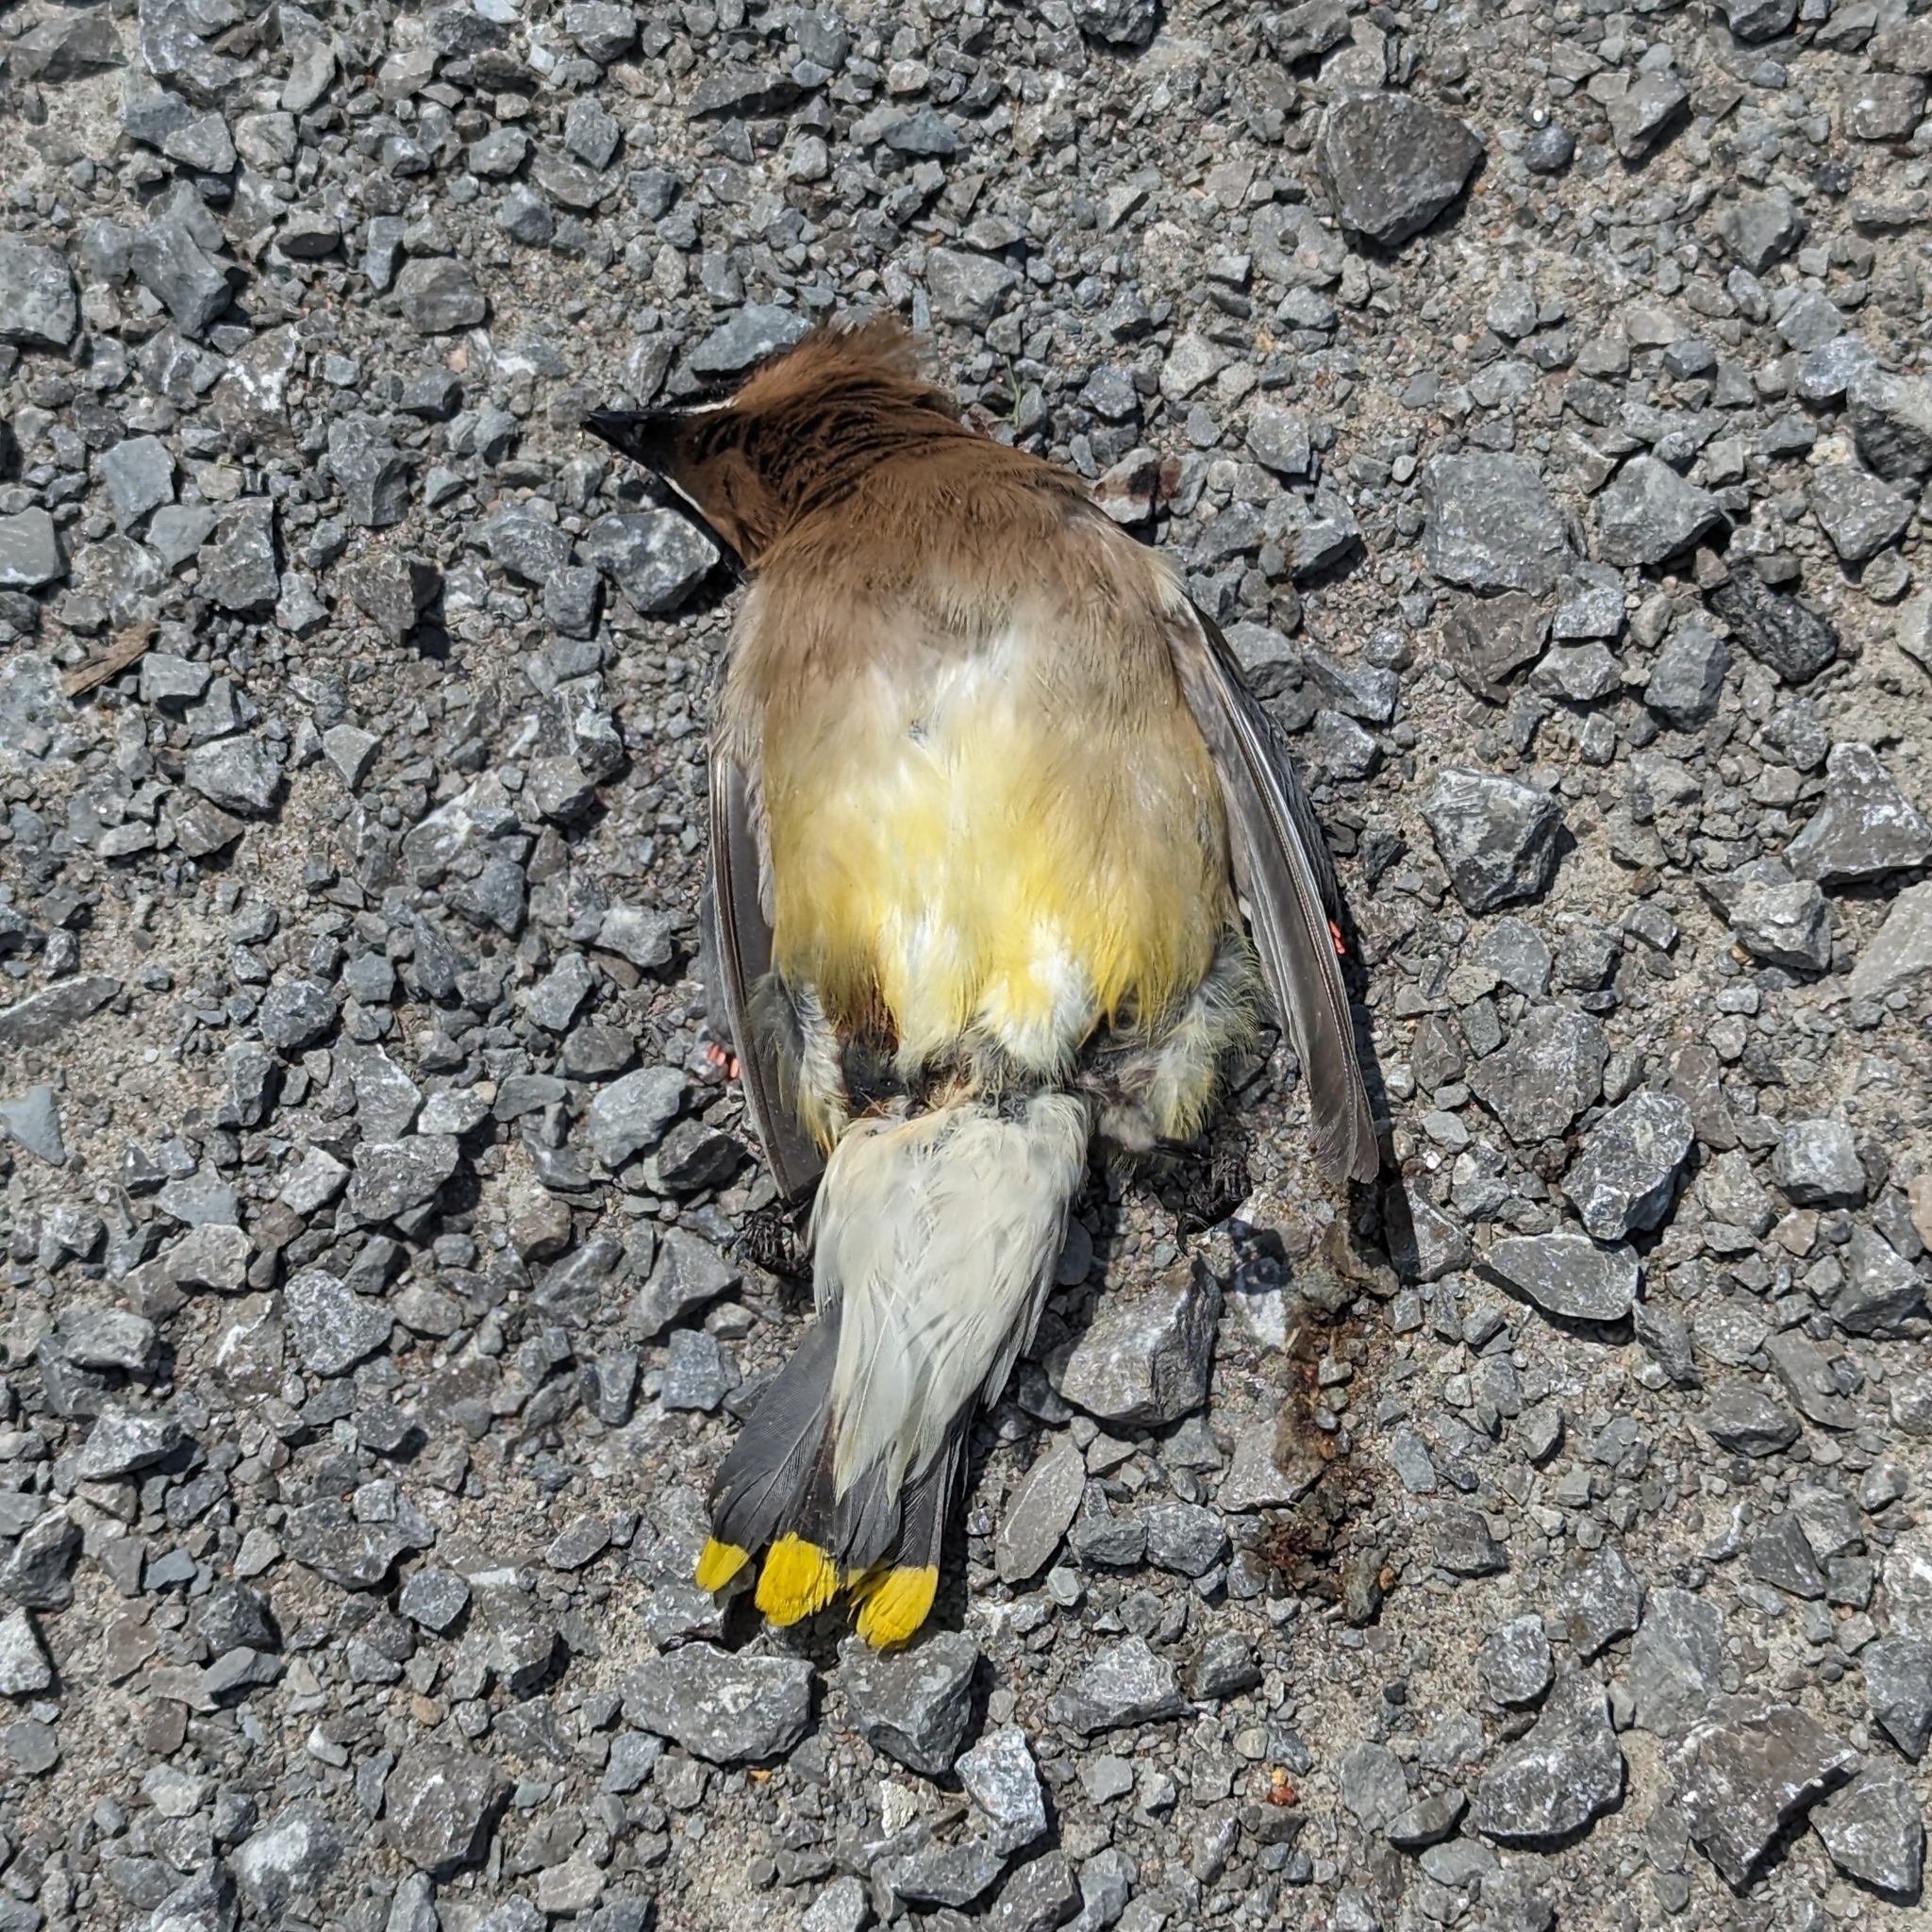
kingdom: Animalia
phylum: Chordata
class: Aves
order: Passeriformes
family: Bombycillidae
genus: Bombycilla
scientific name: Bombycilla cedrorum
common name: Cedar waxwing
